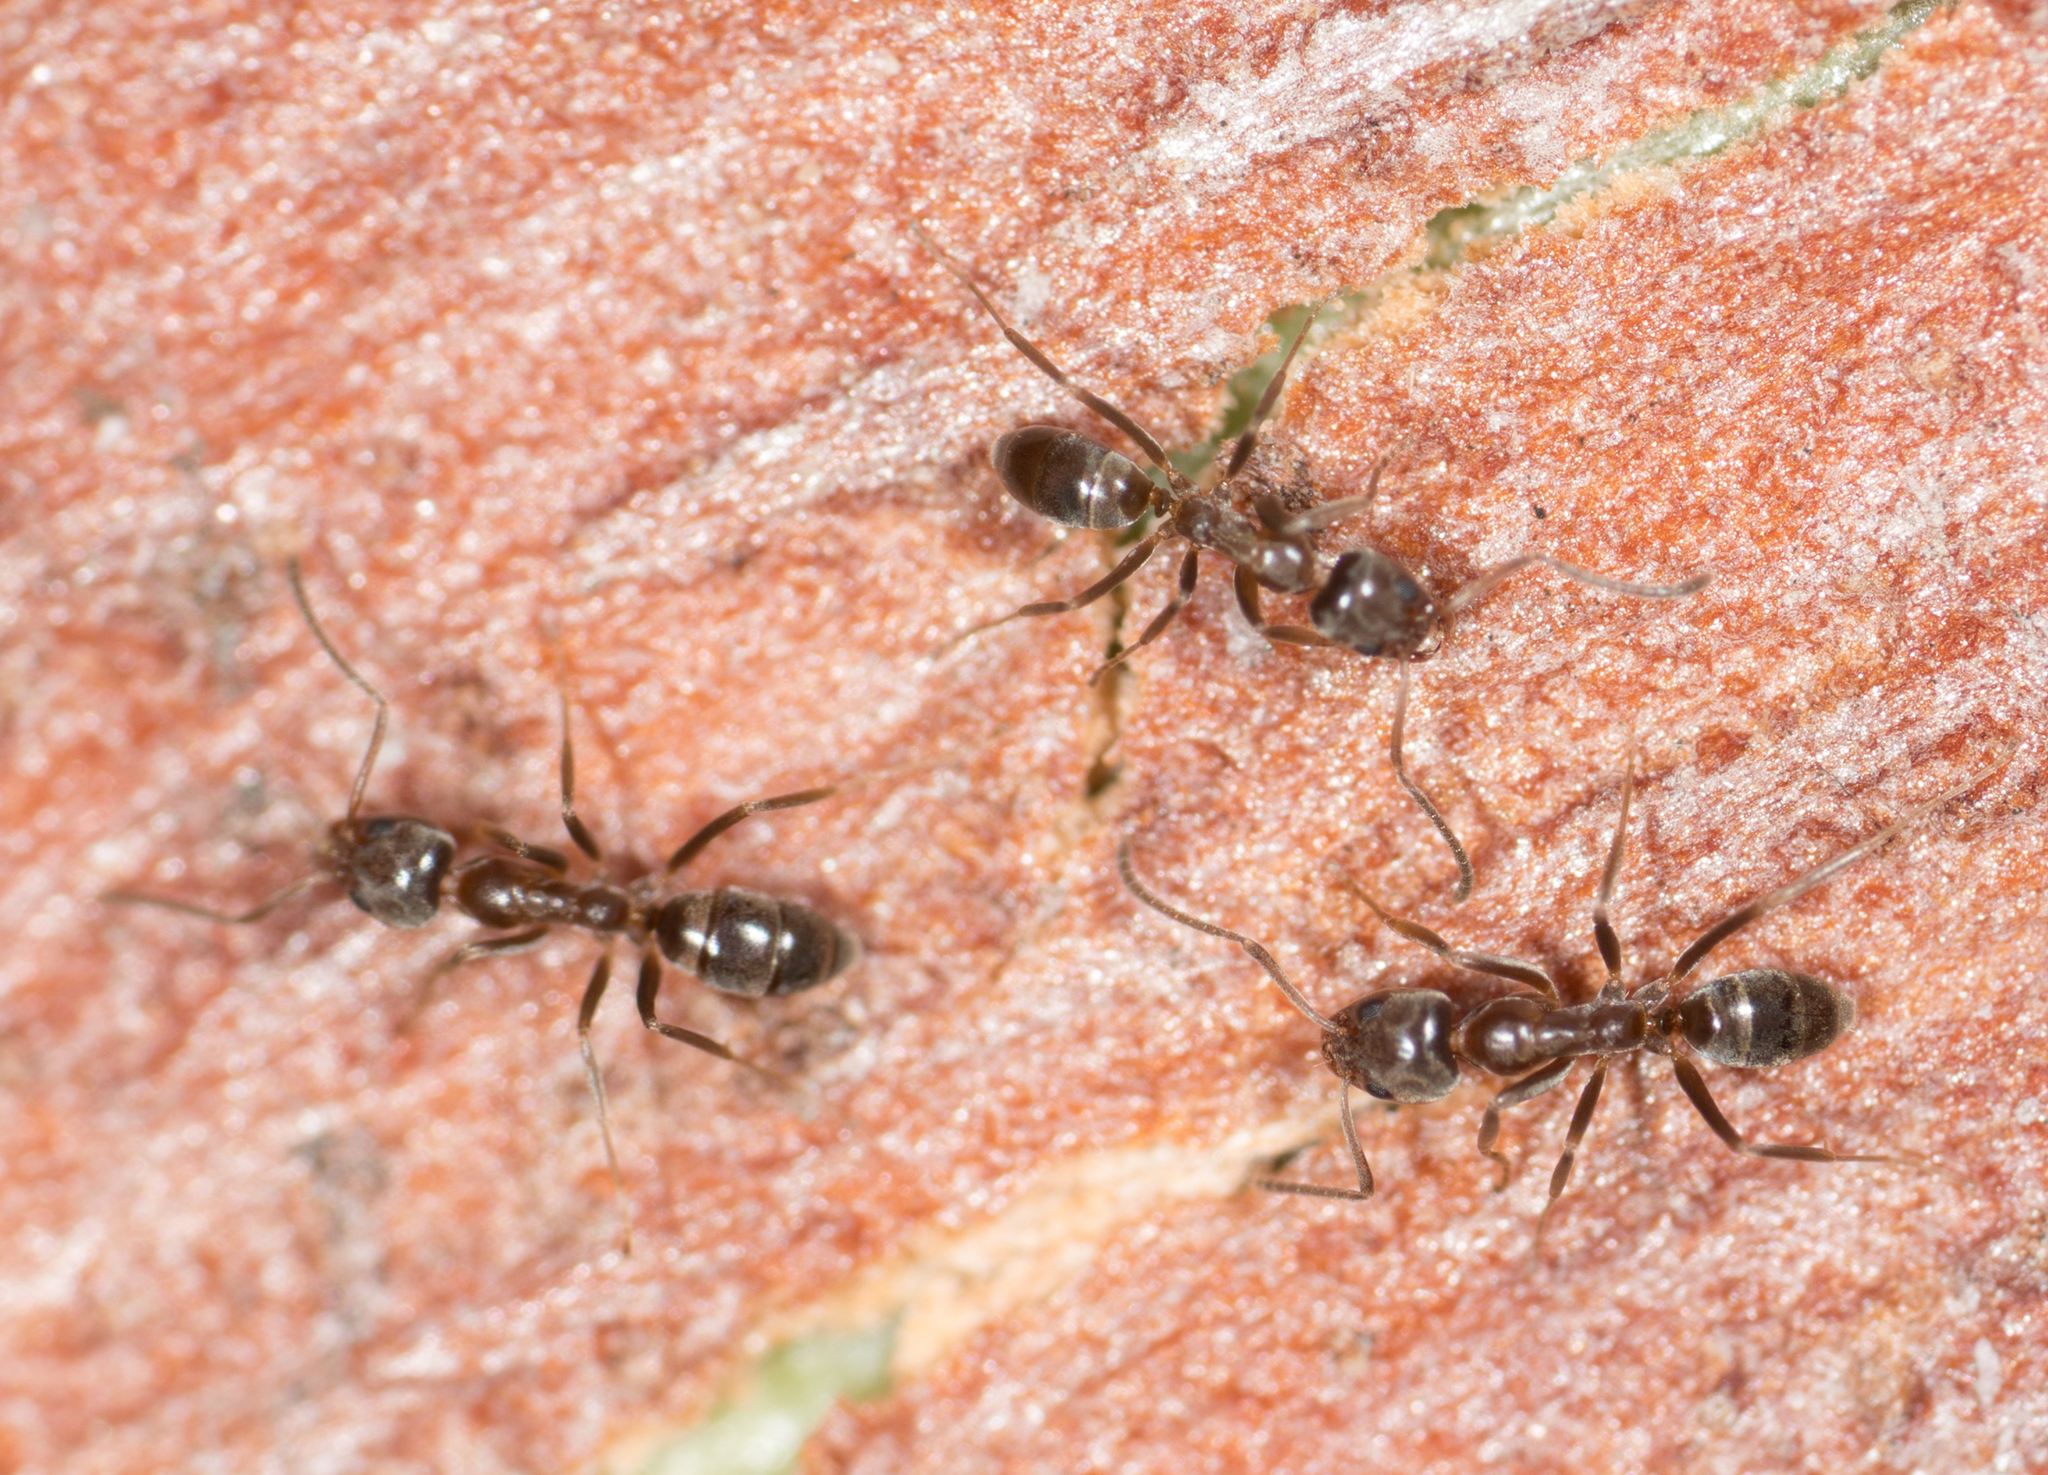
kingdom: Animalia
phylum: Arthropoda
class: Insecta
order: Hymenoptera
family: Formicidae
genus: Linepithema
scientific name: Linepithema humile
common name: Argentine ant
